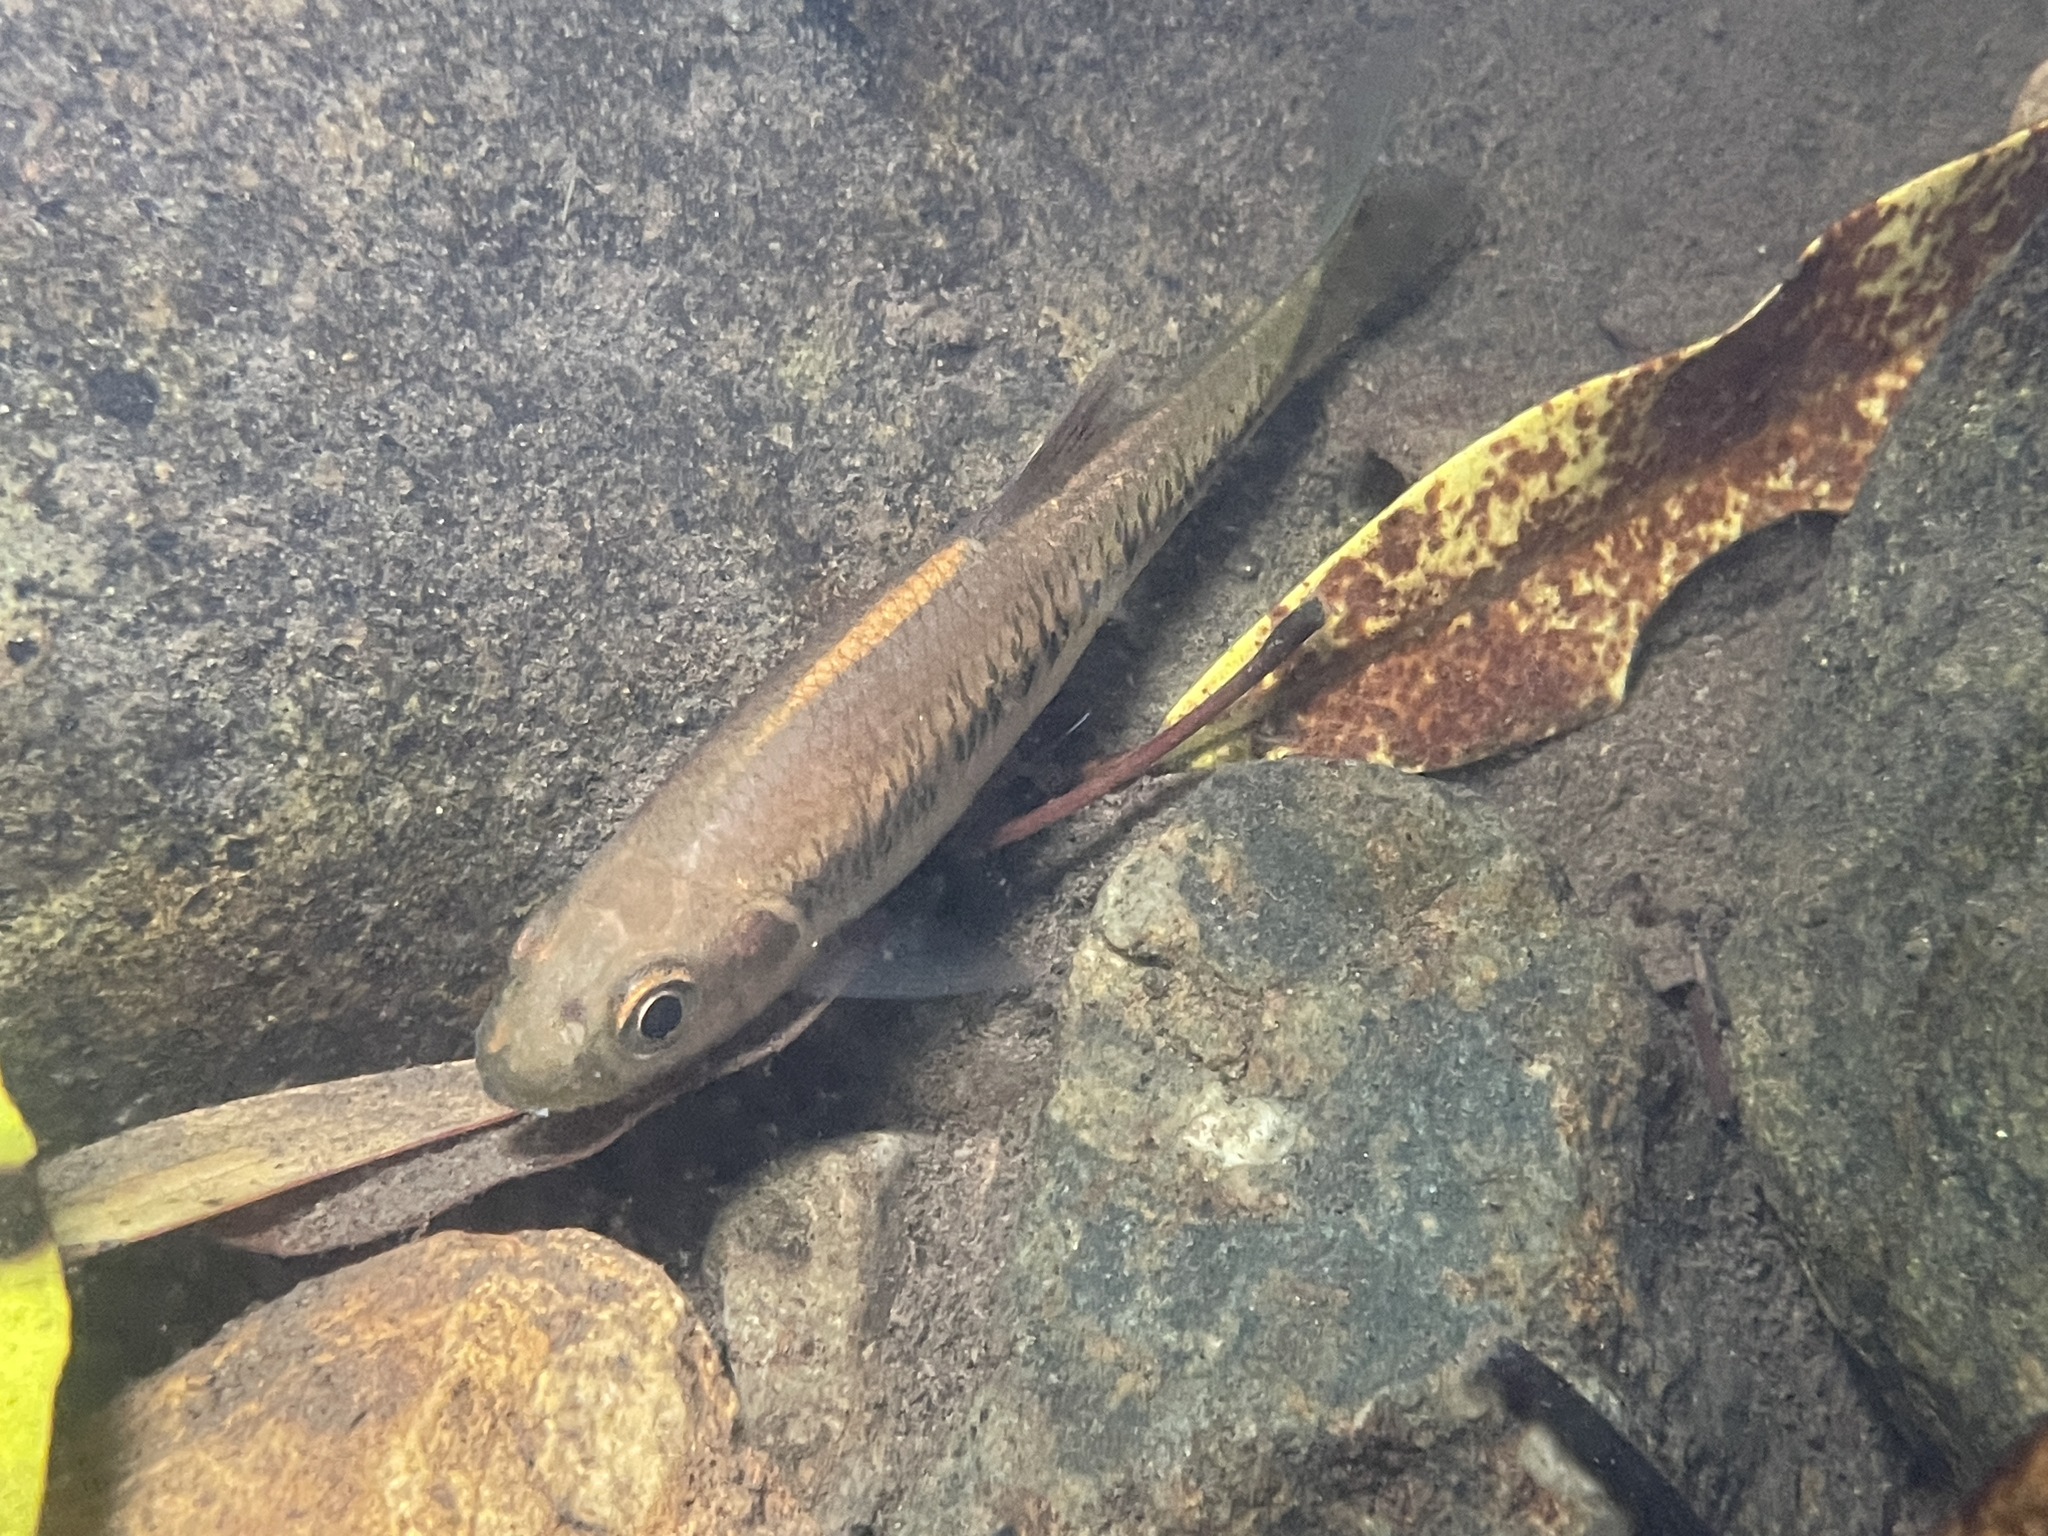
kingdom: Animalia
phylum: Chordata
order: Cypriniformes
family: Cyprinidae
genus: Parazacco
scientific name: Parazacco spilurus
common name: Predaceous chub
